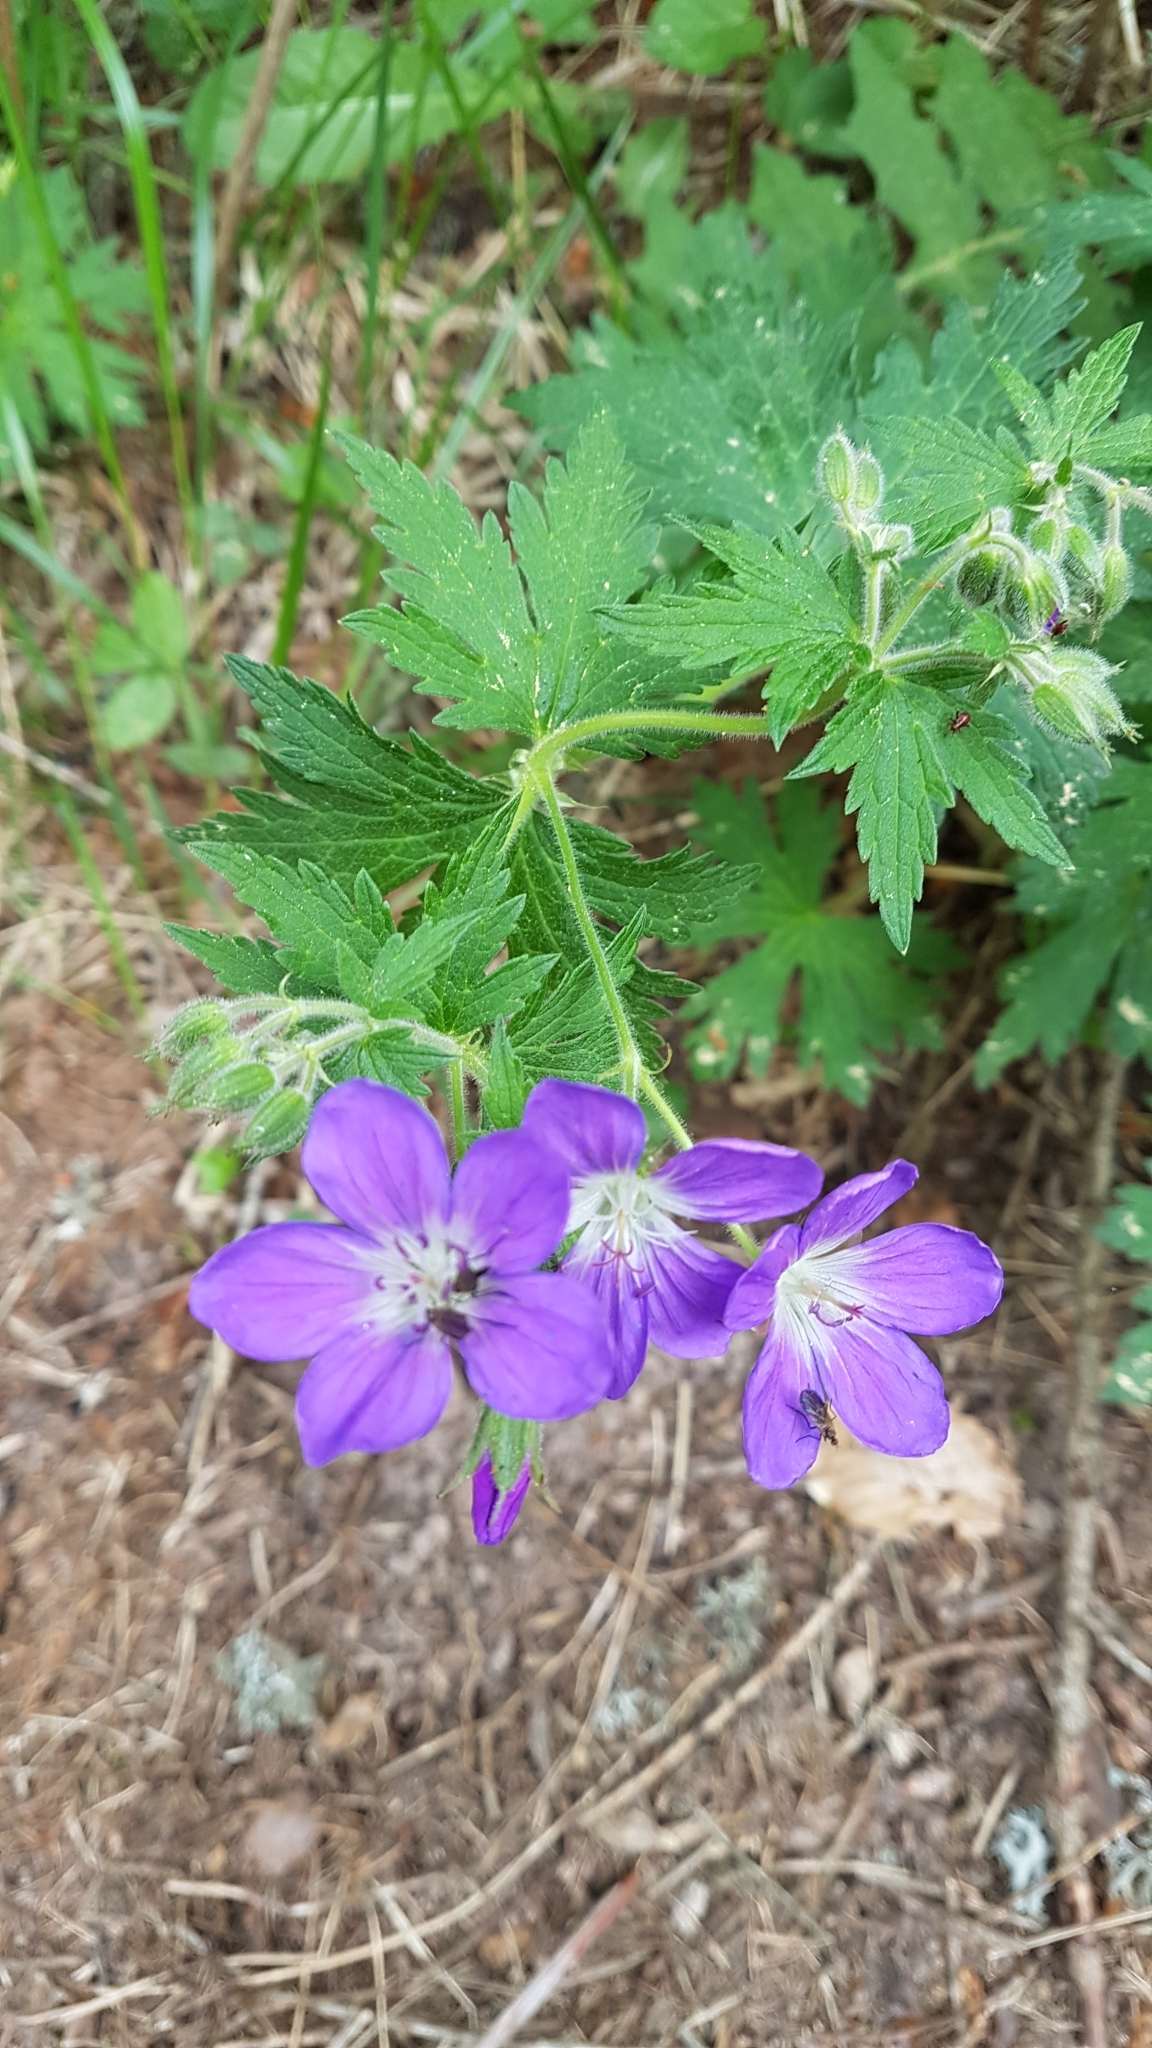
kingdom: Plantae
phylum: Tracheophyta
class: Magnoliopsida
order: Geraniales
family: Geraniaceae
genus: Geranium
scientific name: Geranium sylvaticum
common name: Wood crane's-bill
